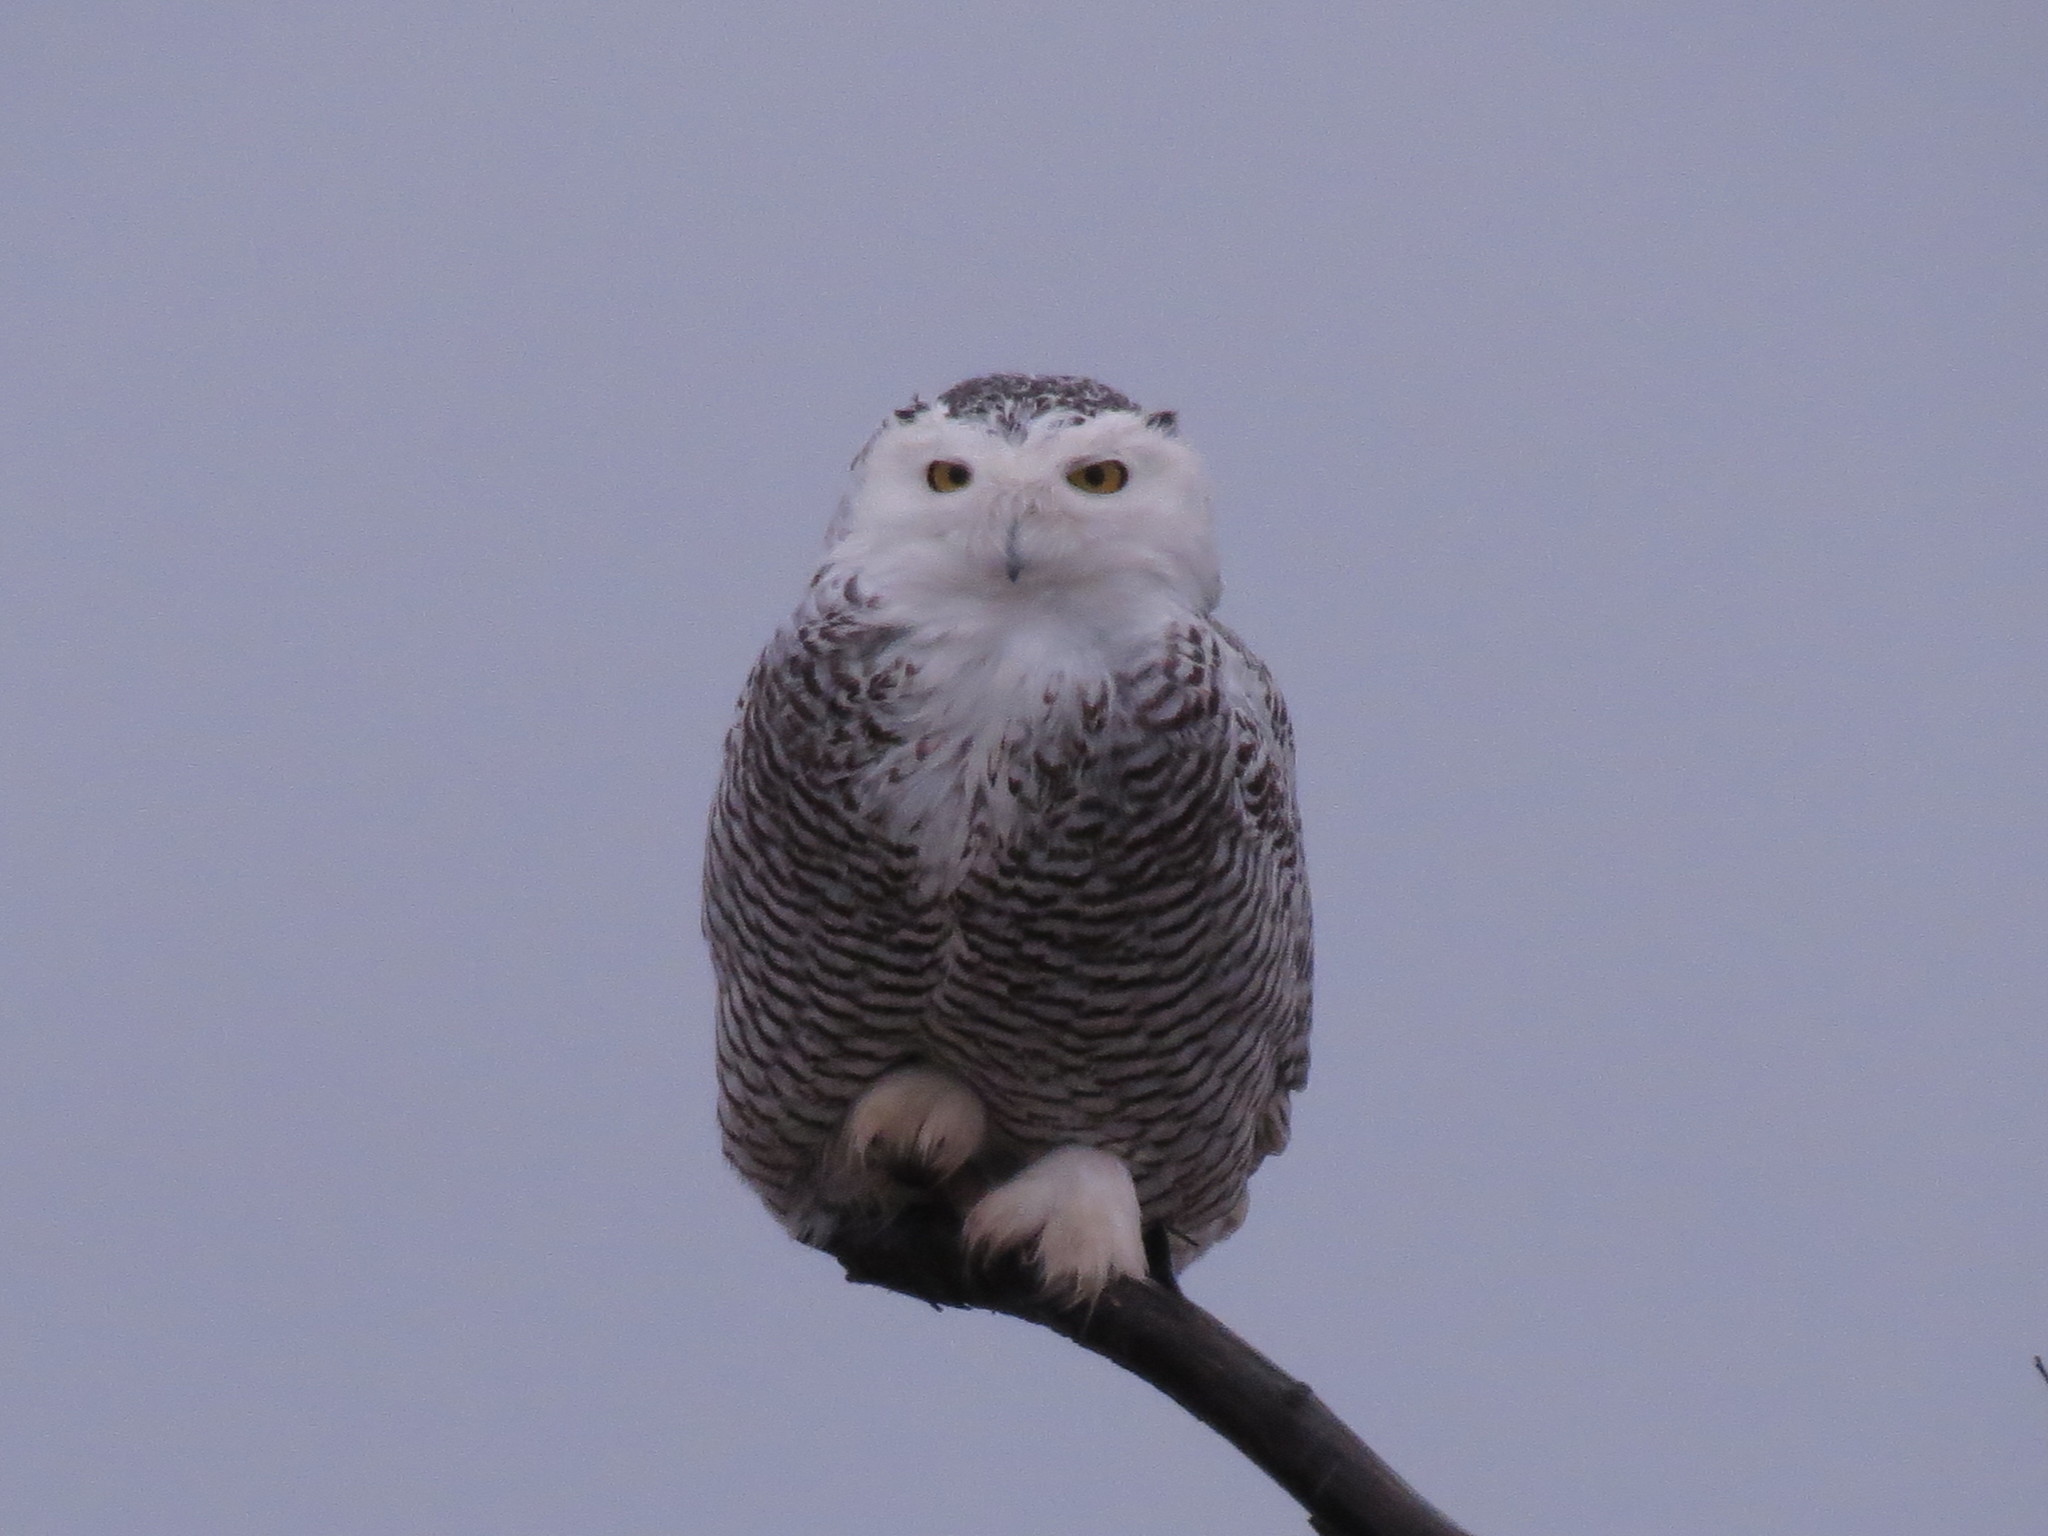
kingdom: Animalia
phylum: Chordata
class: Aves
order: Strigiformes
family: Strigidae
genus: Bubo
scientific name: Bubo scandiacus
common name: Snowy owl
